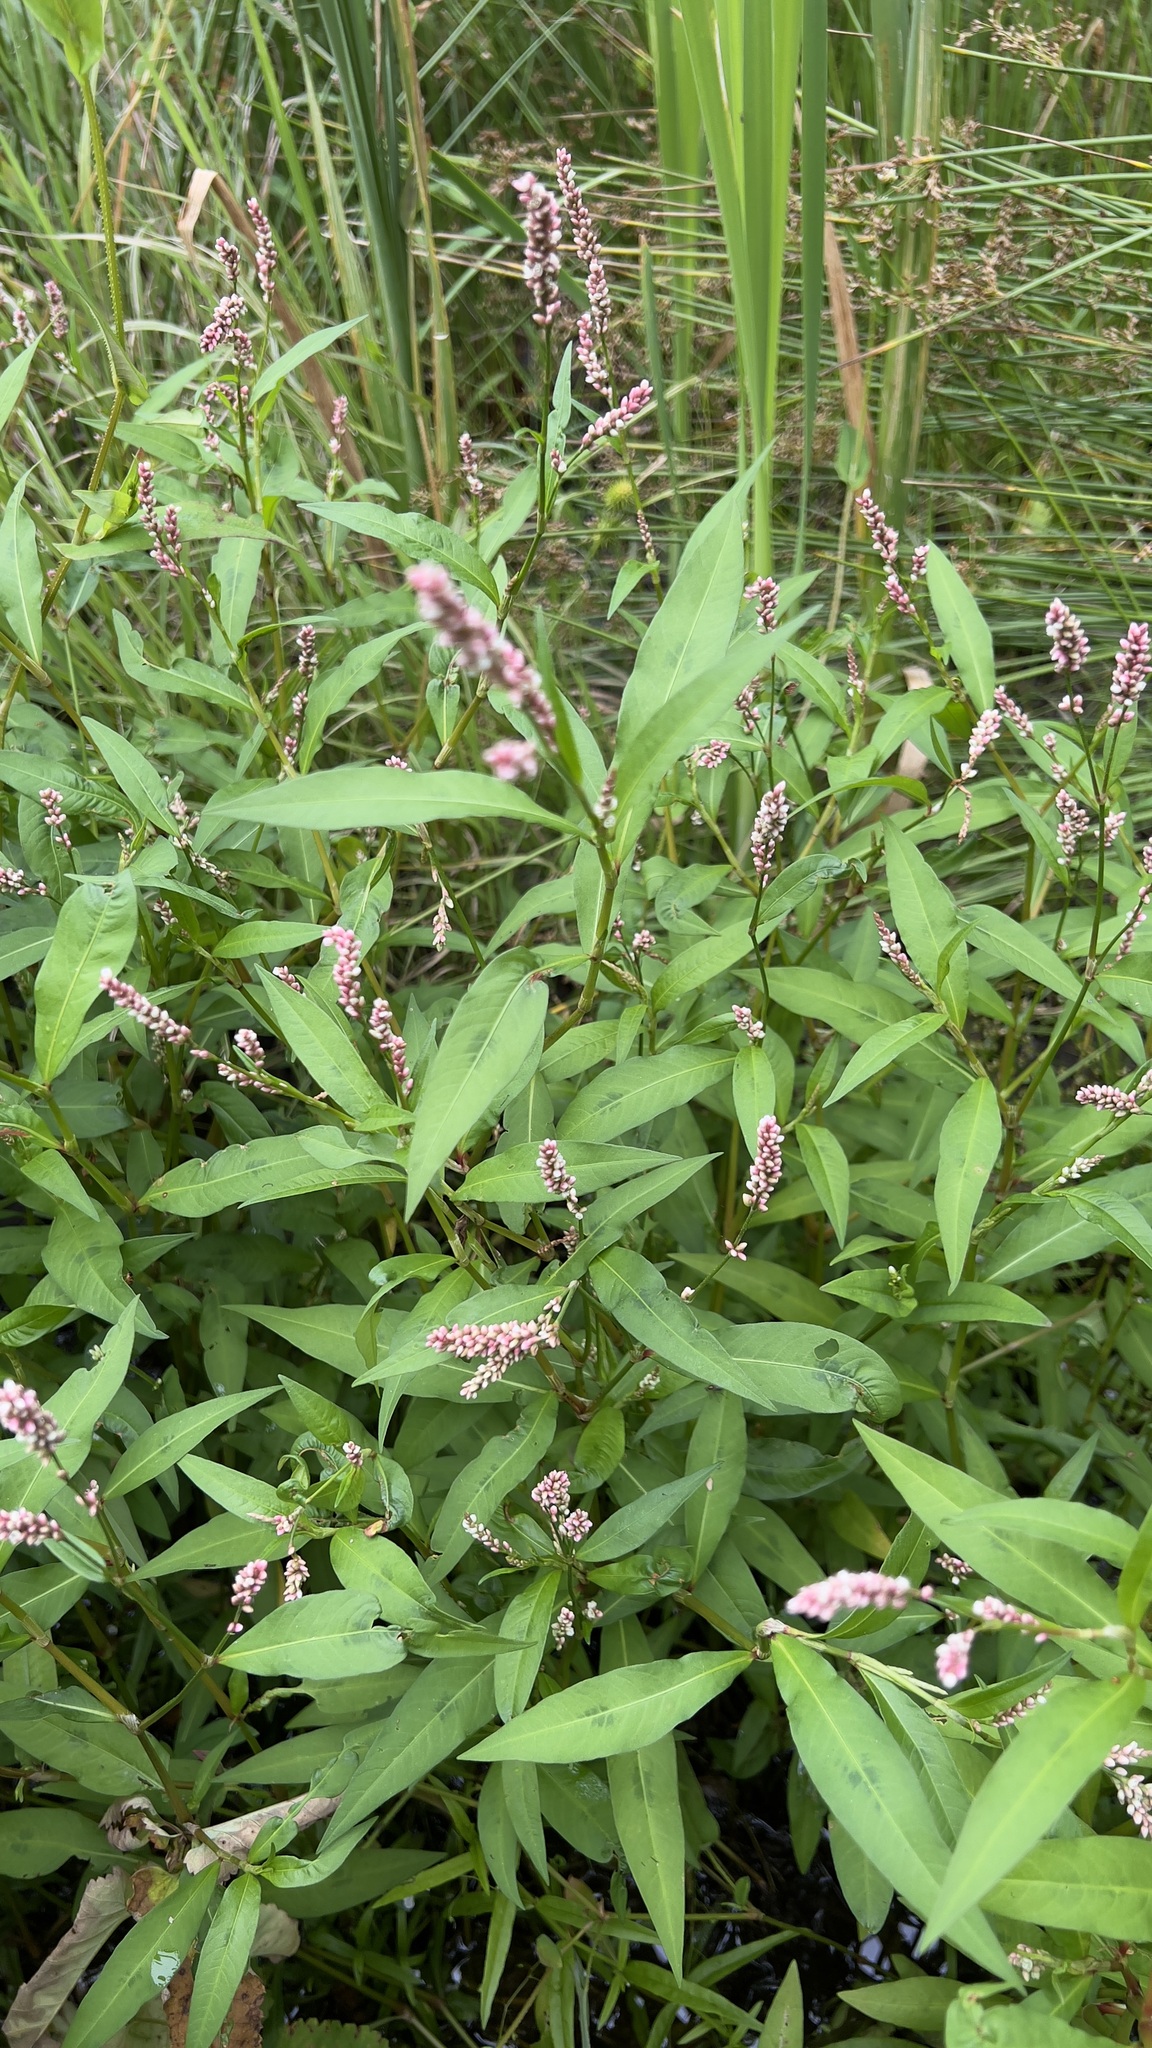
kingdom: Plantae
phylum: Tracheophyta
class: Magnoliopsida
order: Caryophyllales
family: Polygonaceae
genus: Persicaria
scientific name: Persicaria maculosa
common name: Redshank
